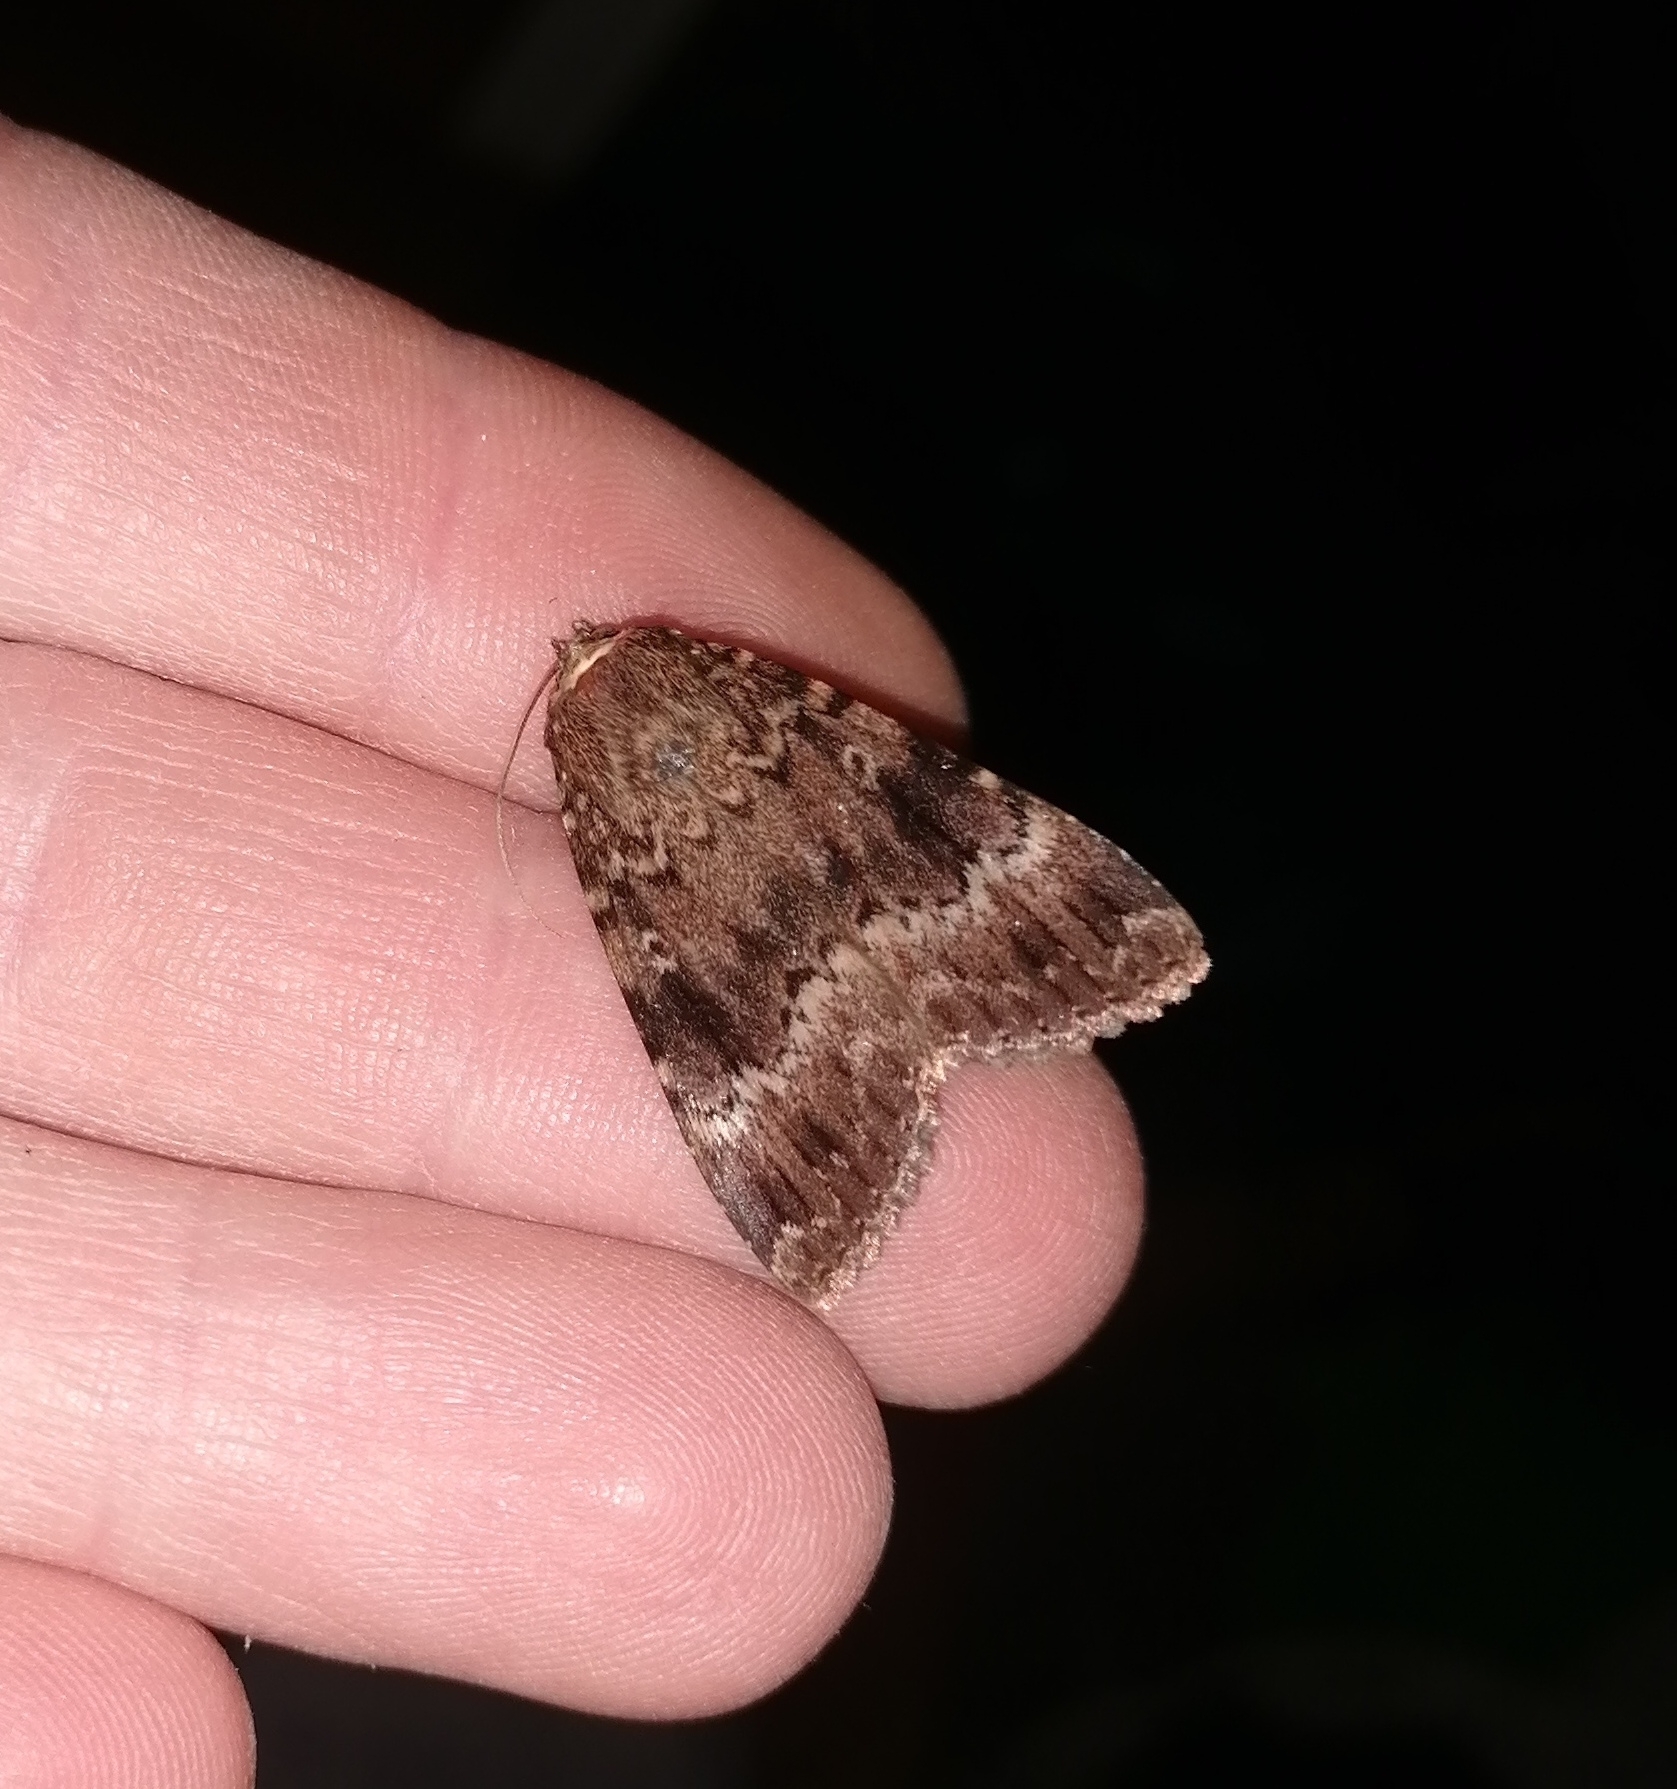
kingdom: Animalia
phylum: Arthropoda
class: Insecta
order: Lepidoptera
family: Noctuidae
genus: Amphipyra
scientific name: Amphipyra berbera
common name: Svensson's copper underwing
